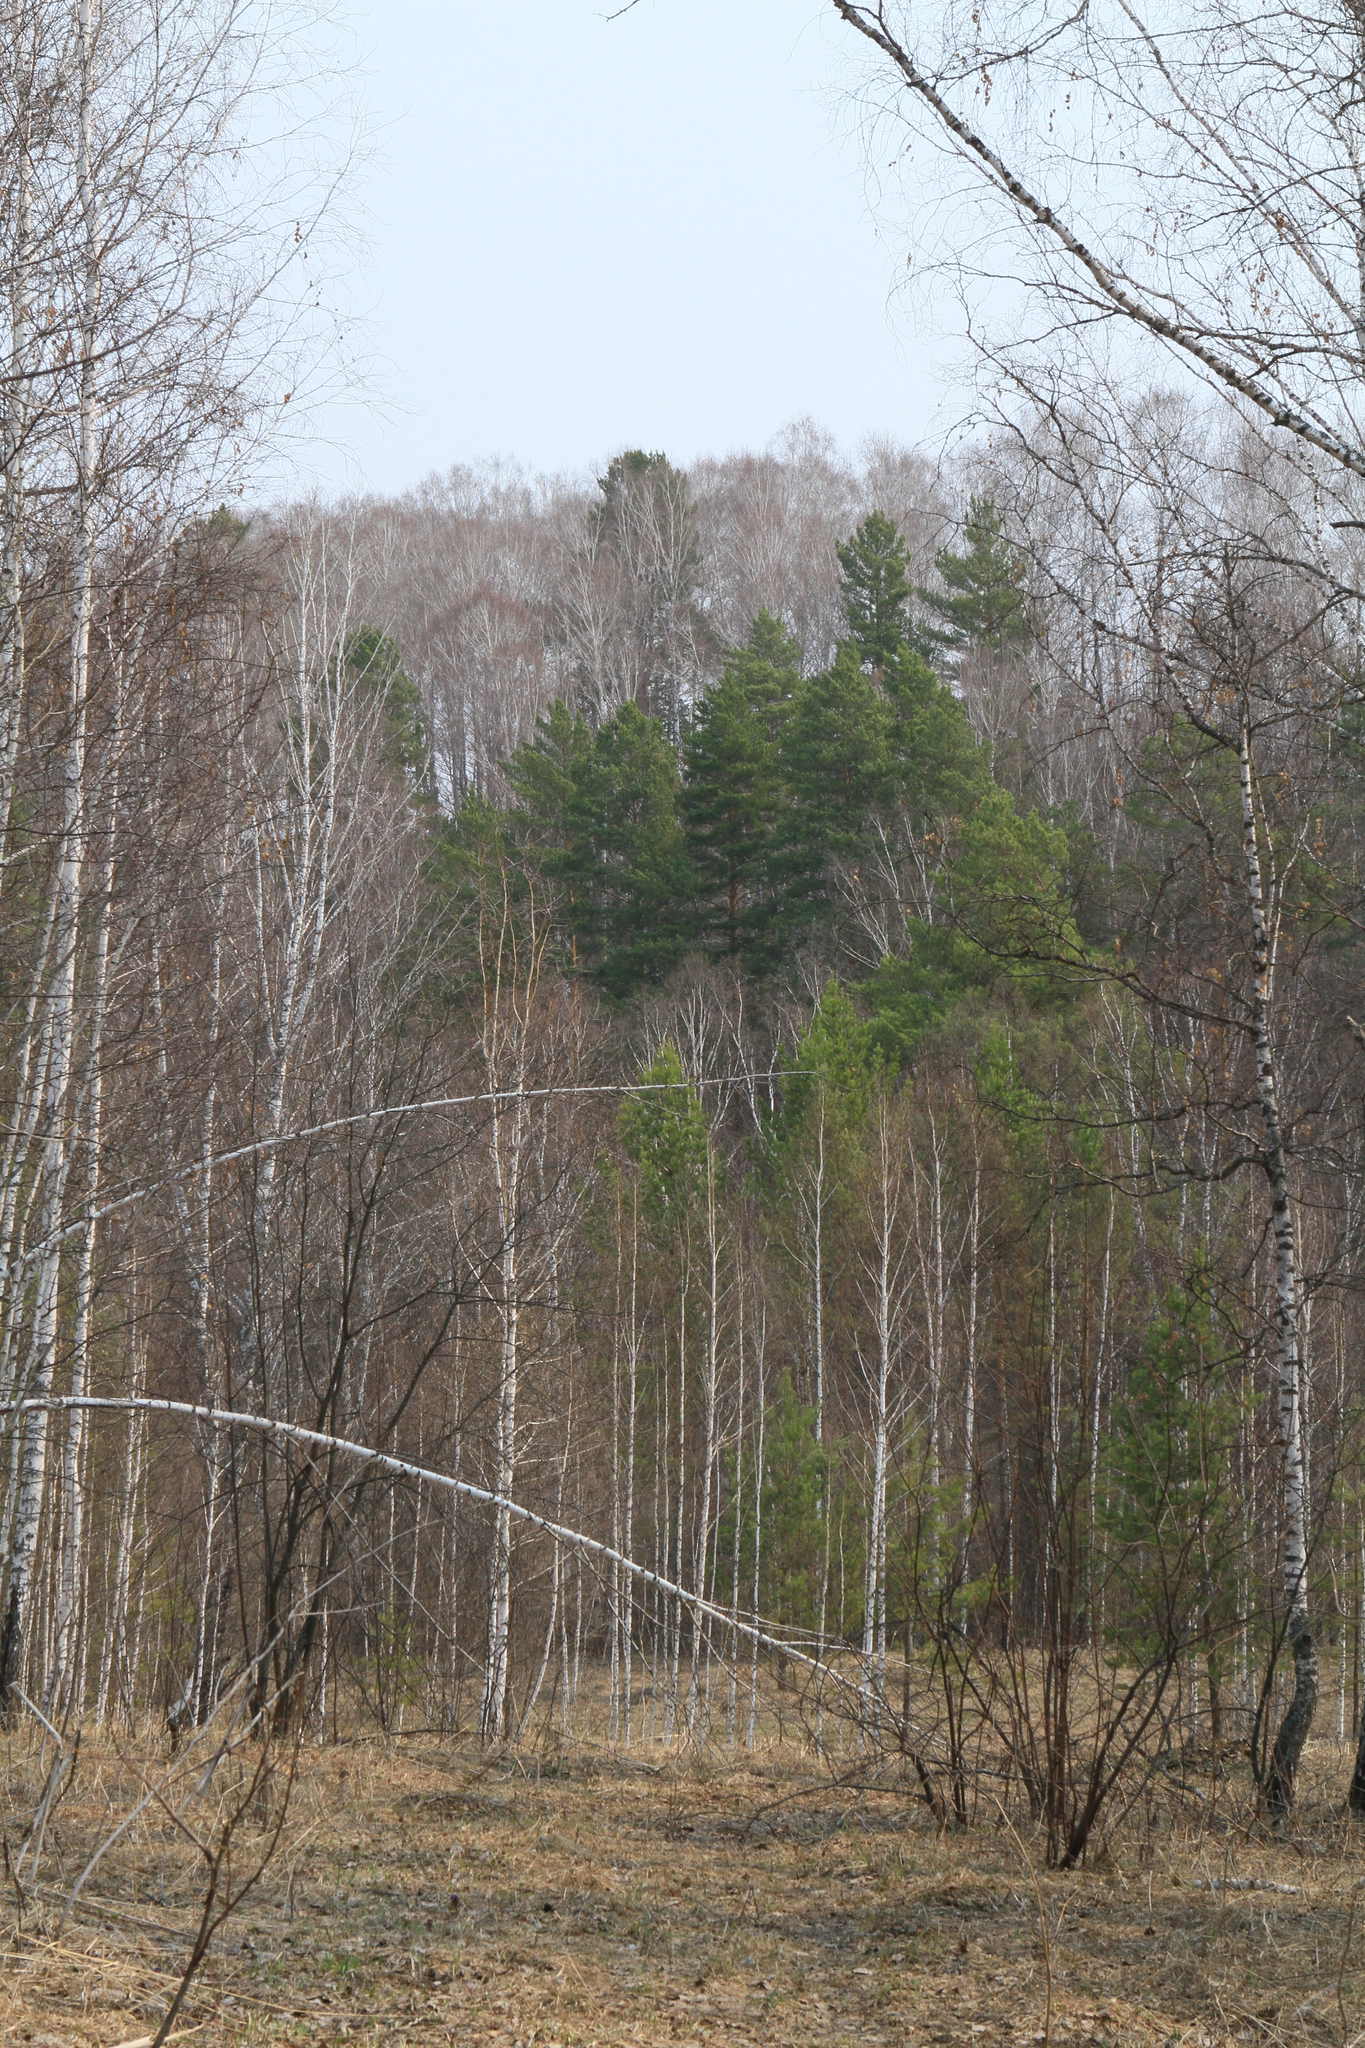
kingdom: Plantae
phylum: Tracheophyta
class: Pinopsida
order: Pinales
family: Pinaceae
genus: Pinus
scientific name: Pinus sylvestris
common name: Scots pine
